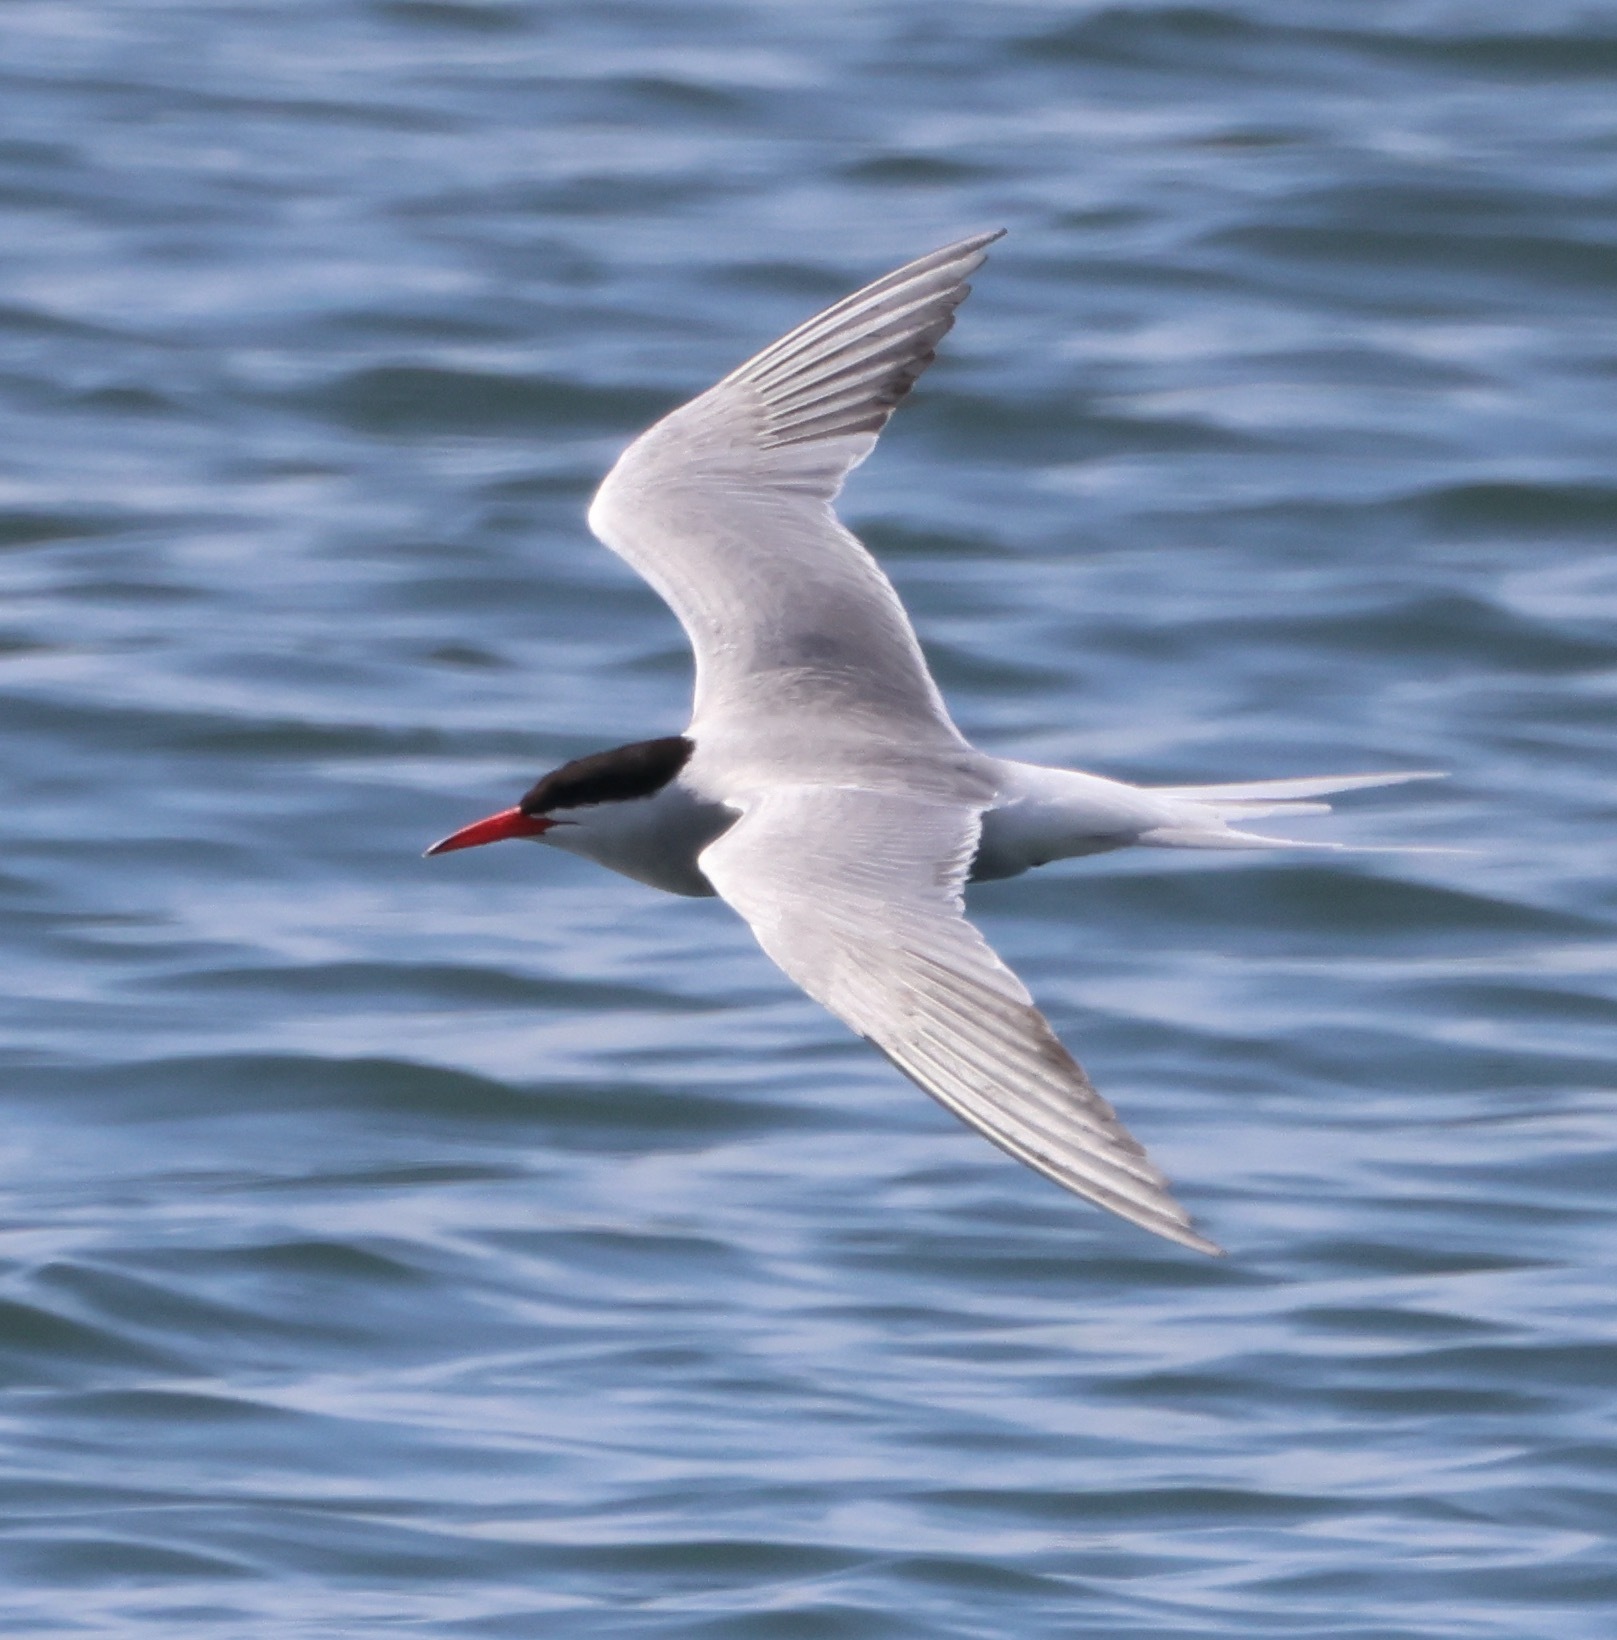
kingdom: Animalia
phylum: Chordata
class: Aves
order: Charadriiformes
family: Laridae
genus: Sterna
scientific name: Sterna hirundo
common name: Common tern
